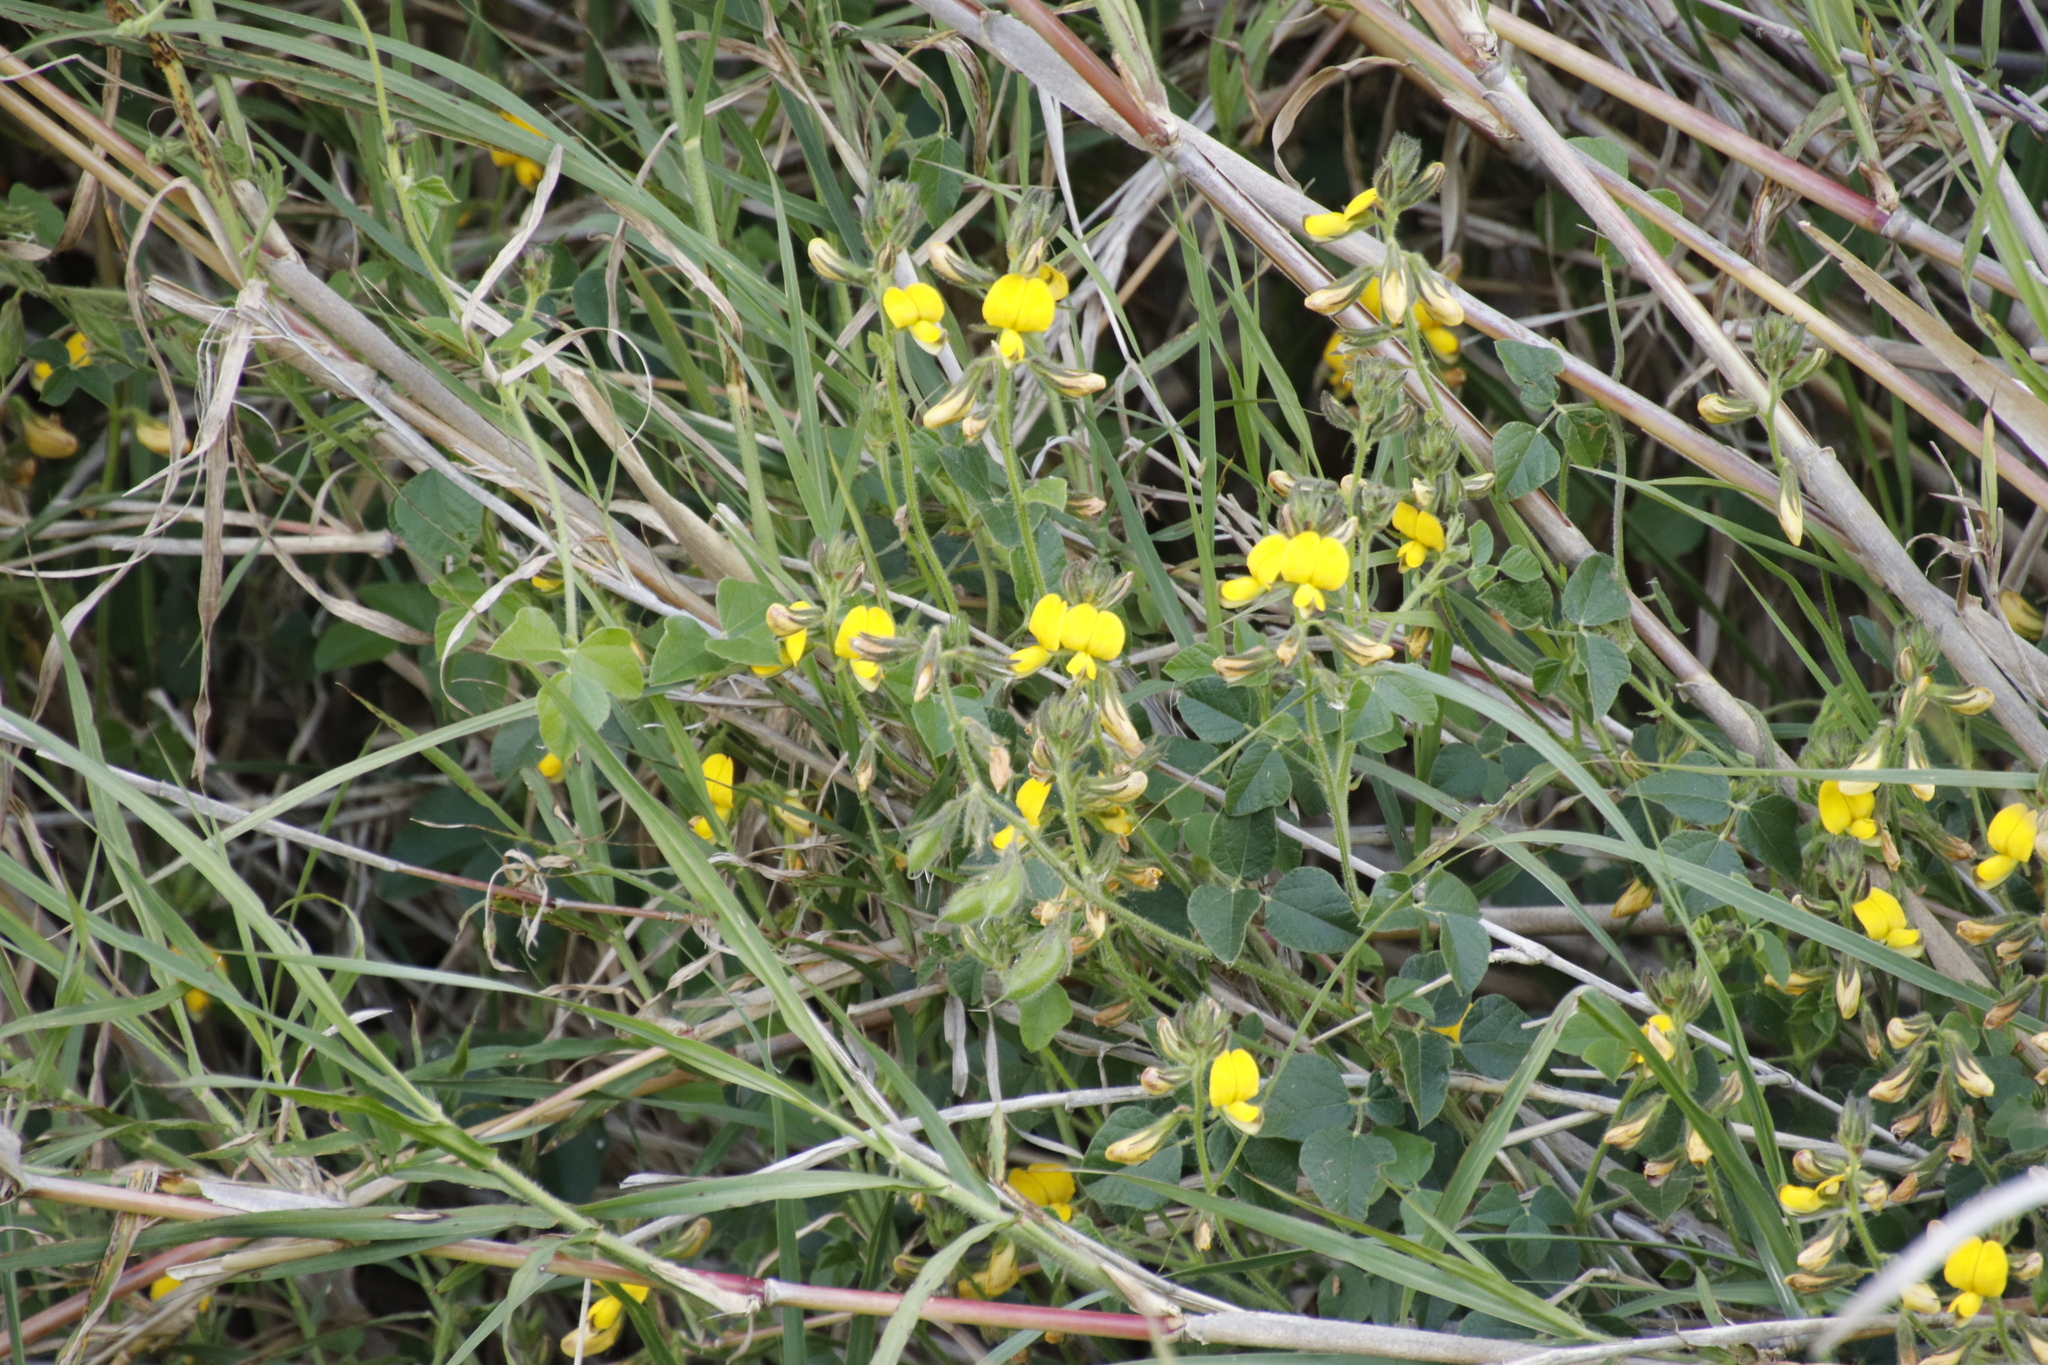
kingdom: Plantae
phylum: Tracheophyta
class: Magnoliopsida
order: Fabales
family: Fabaceae
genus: Bolusafra
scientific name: Bolusafra bituminosa
